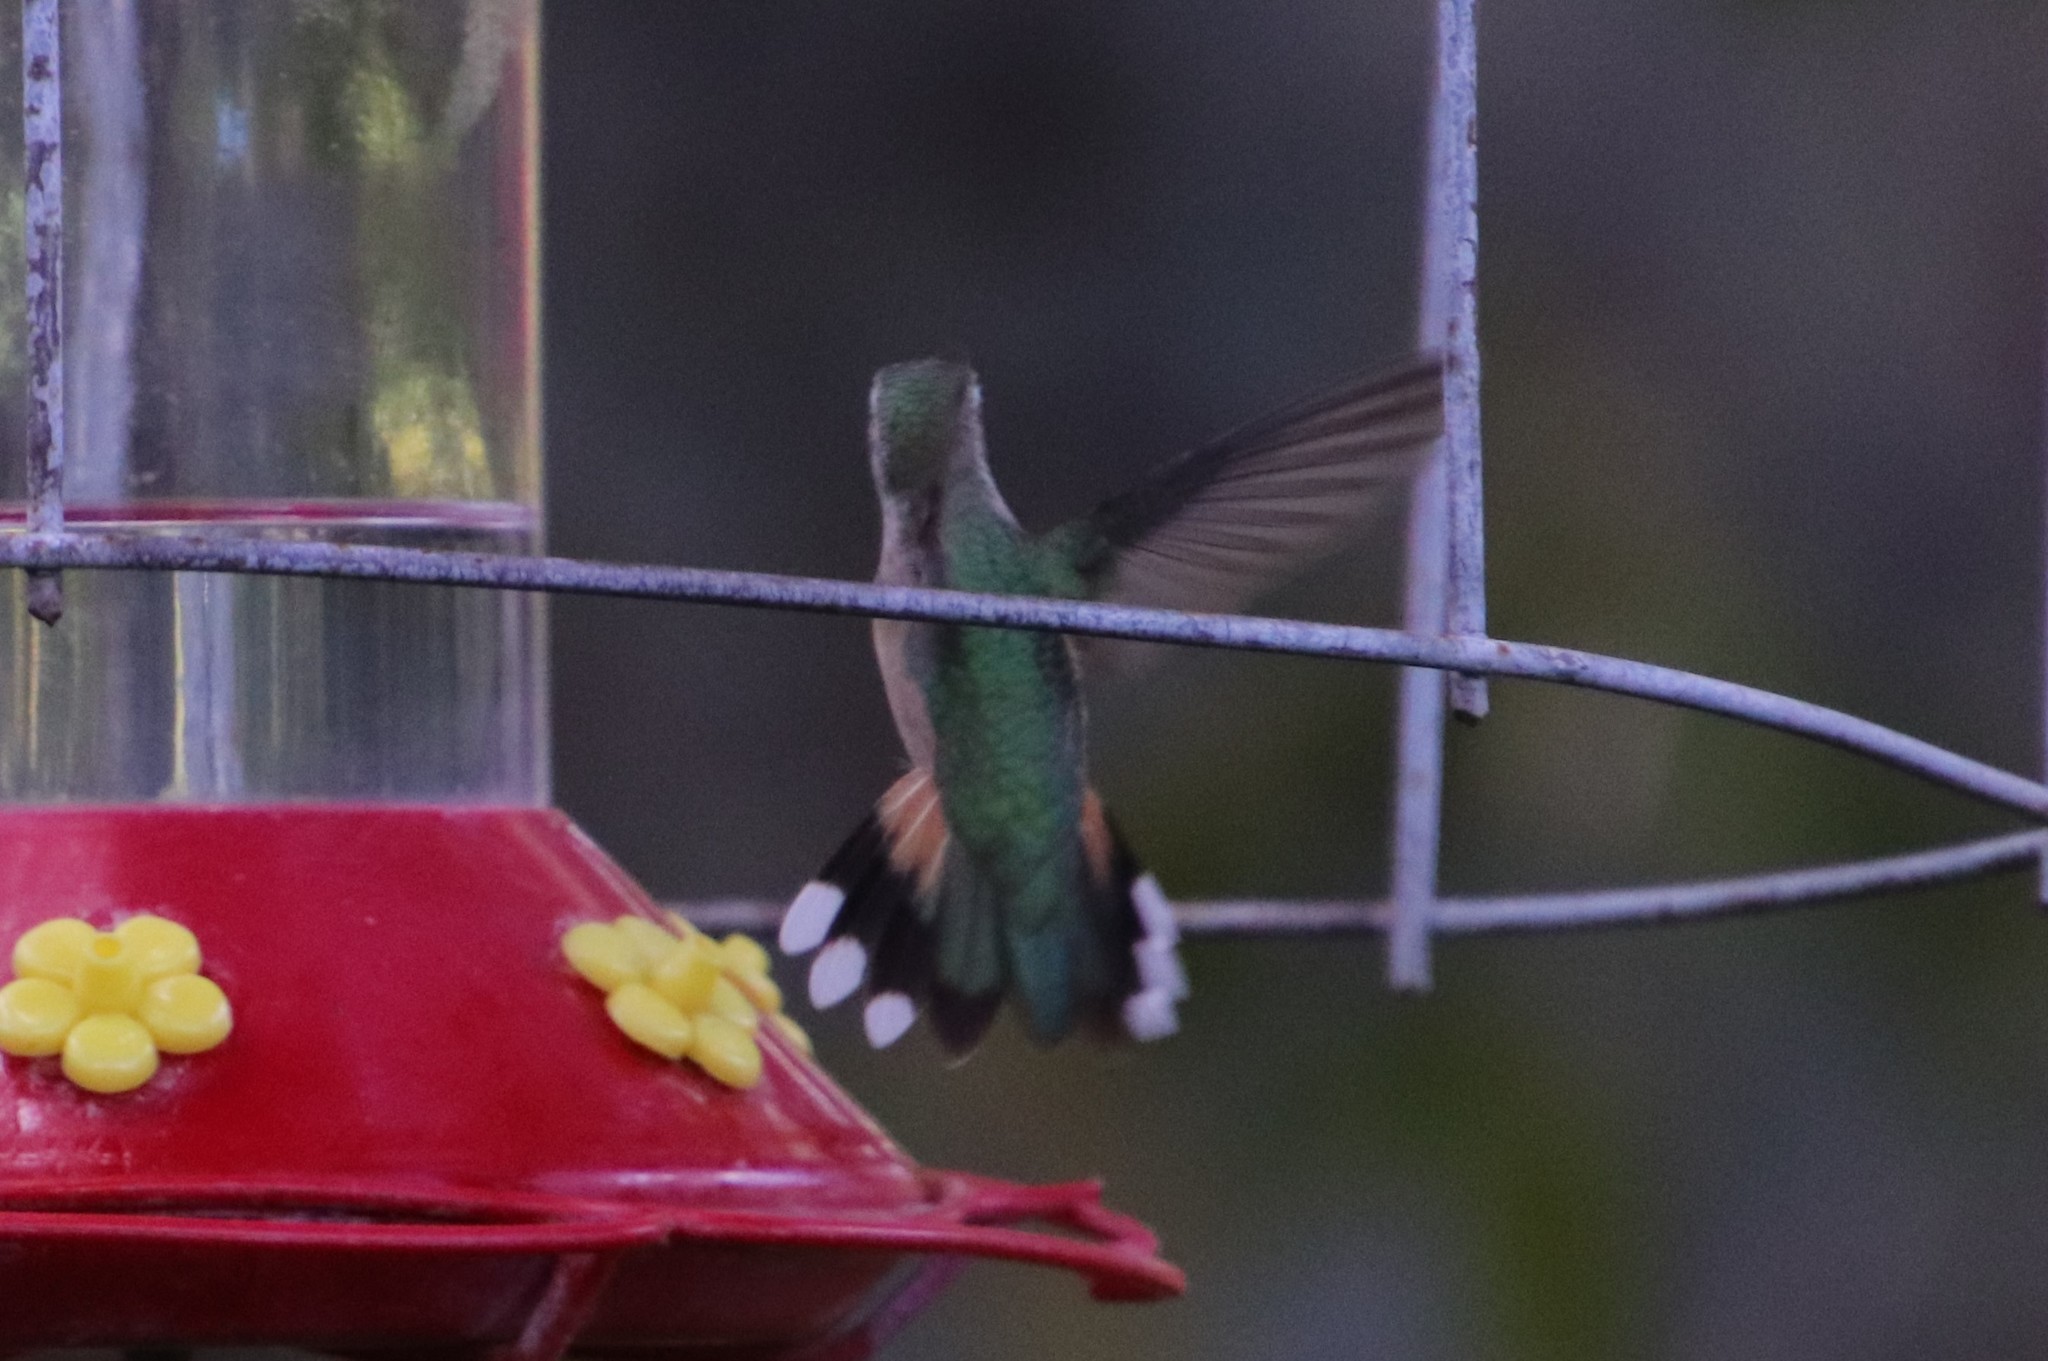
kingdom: Animalia
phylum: Chordata
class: Aves
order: Apodiformes
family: Trochilidae
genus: Selasphorus
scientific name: Selasphorus platycercus
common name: Broad-tailed hummingbird
